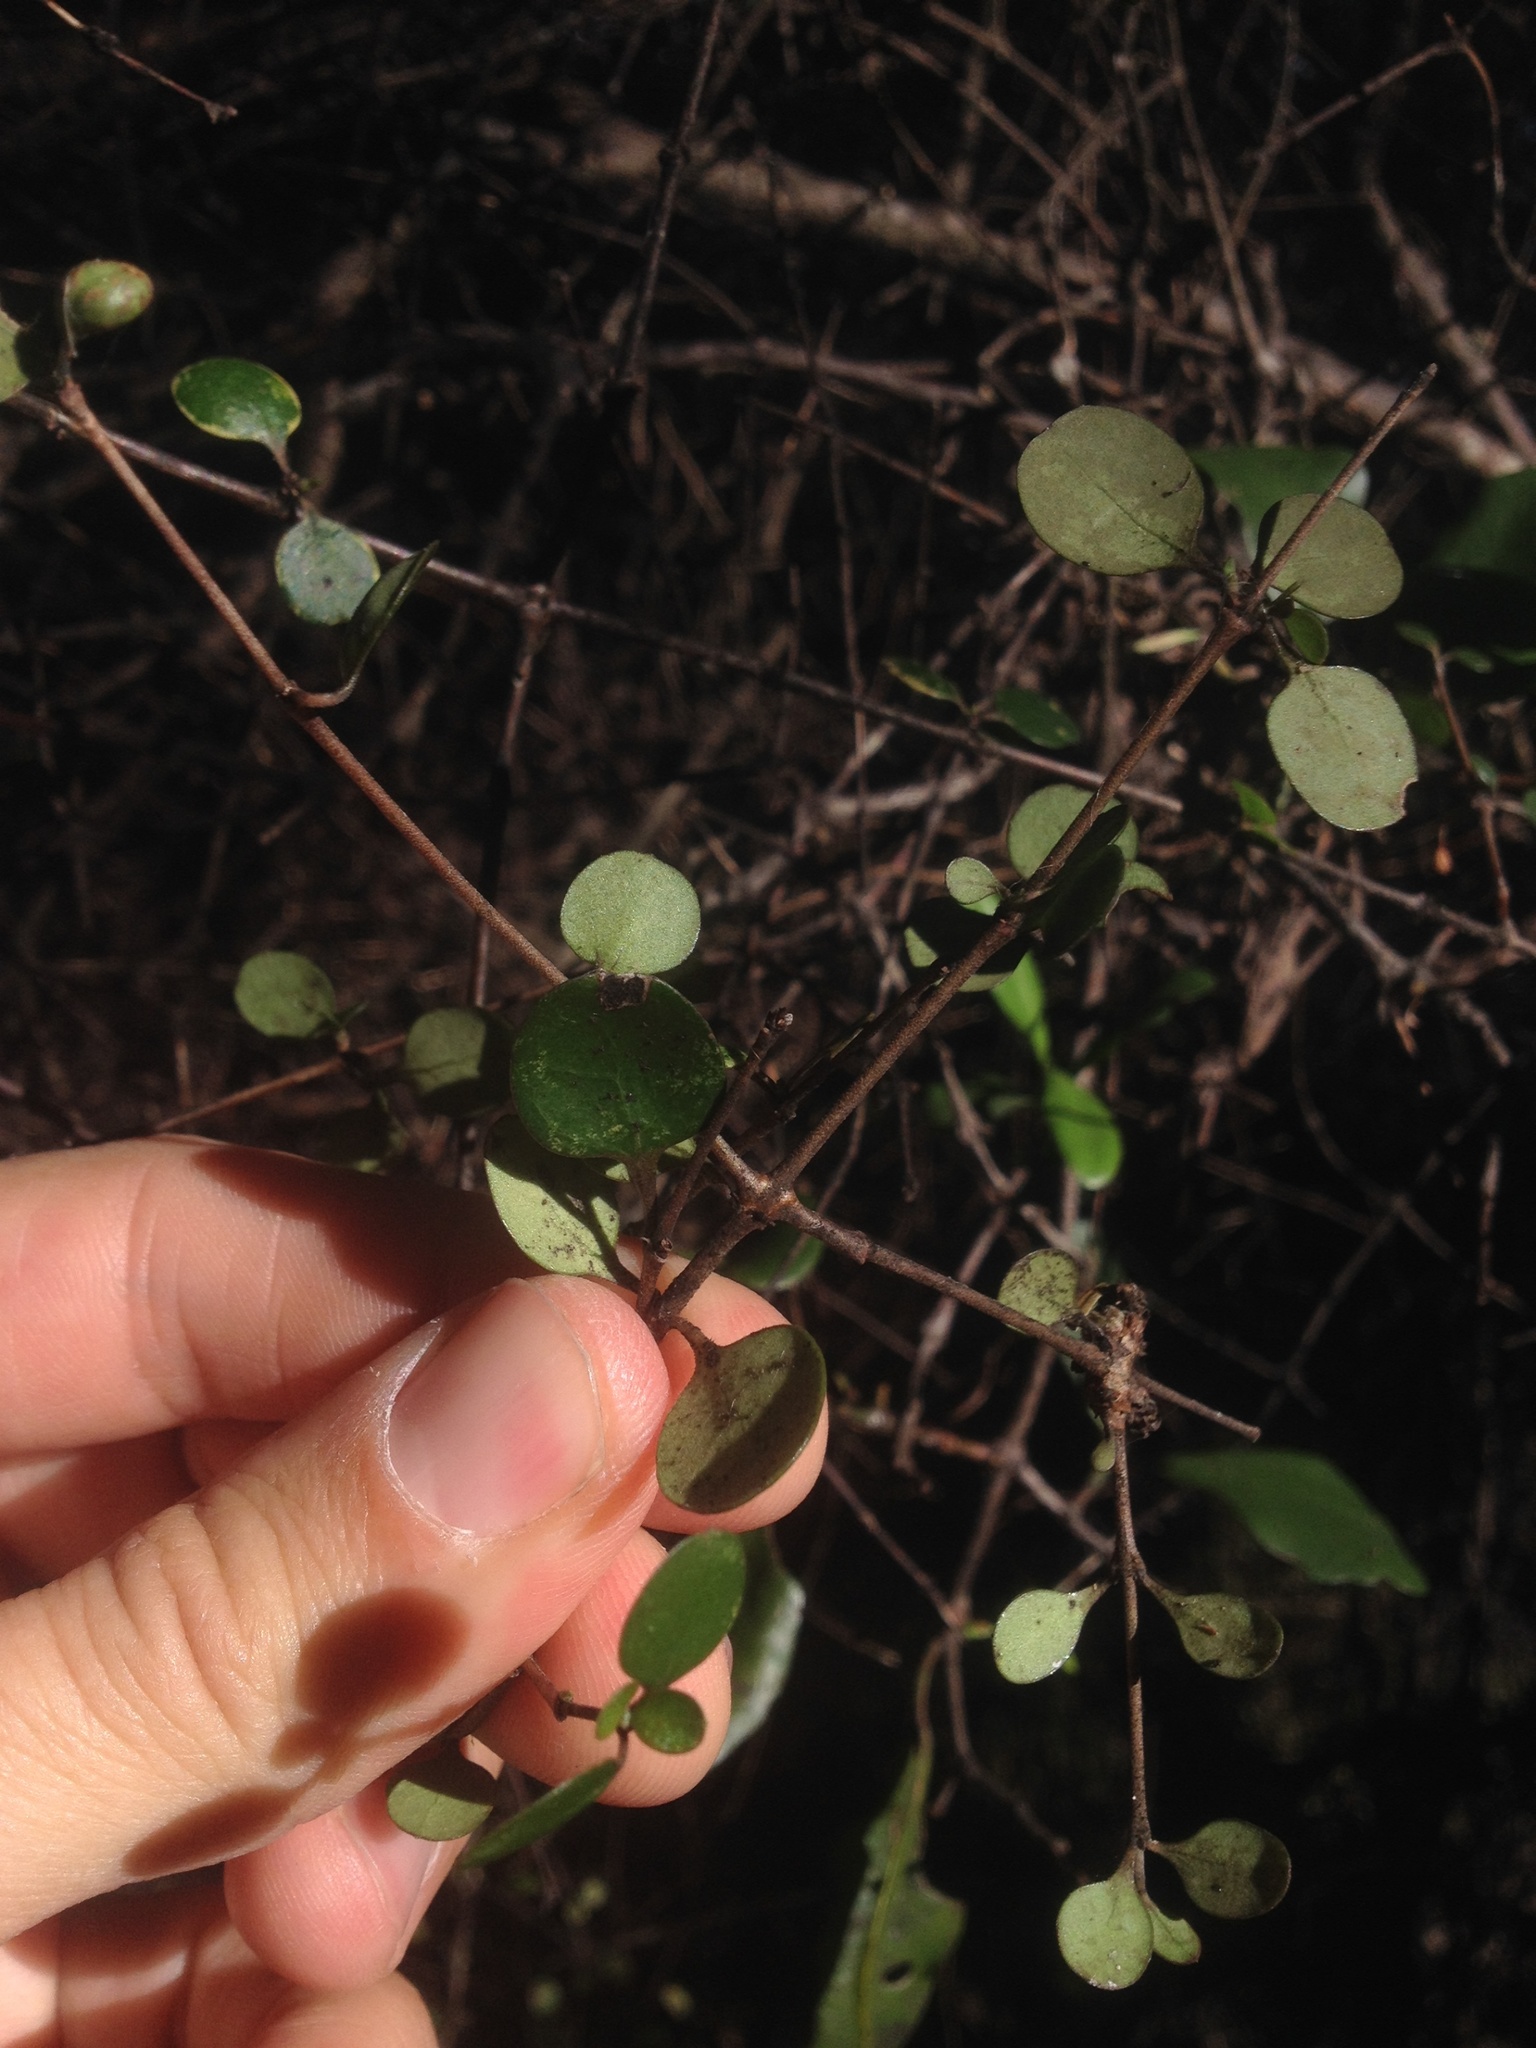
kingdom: Plantae
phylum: Tracheophyta
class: Magnoliopsida
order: Gentianales
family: Rubiaceae
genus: Coprosma
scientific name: Coprosma crassifolia
